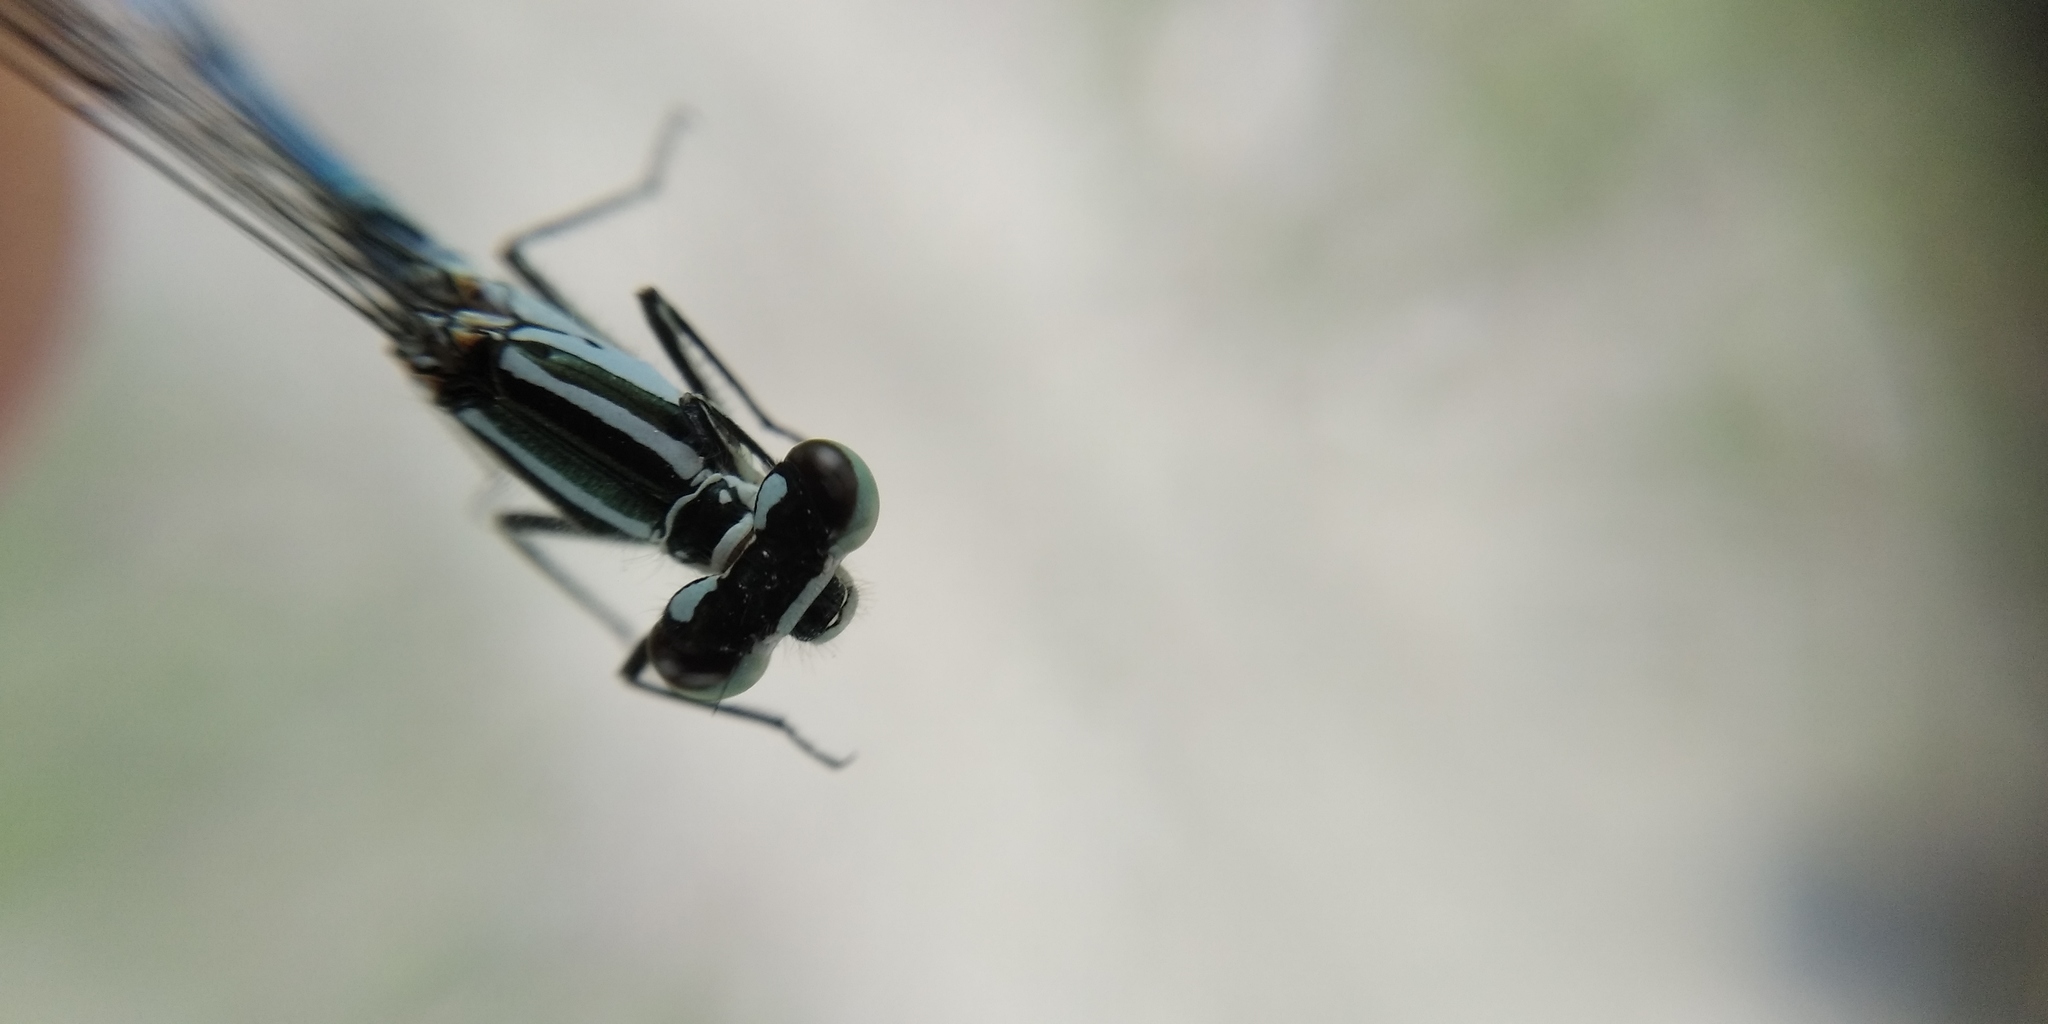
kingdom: Animalia
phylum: Arthropoda
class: Insecta
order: Odonata
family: Coenagrionidae
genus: Coenagrion
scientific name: Coenagrion puella
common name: Azure damselfly
